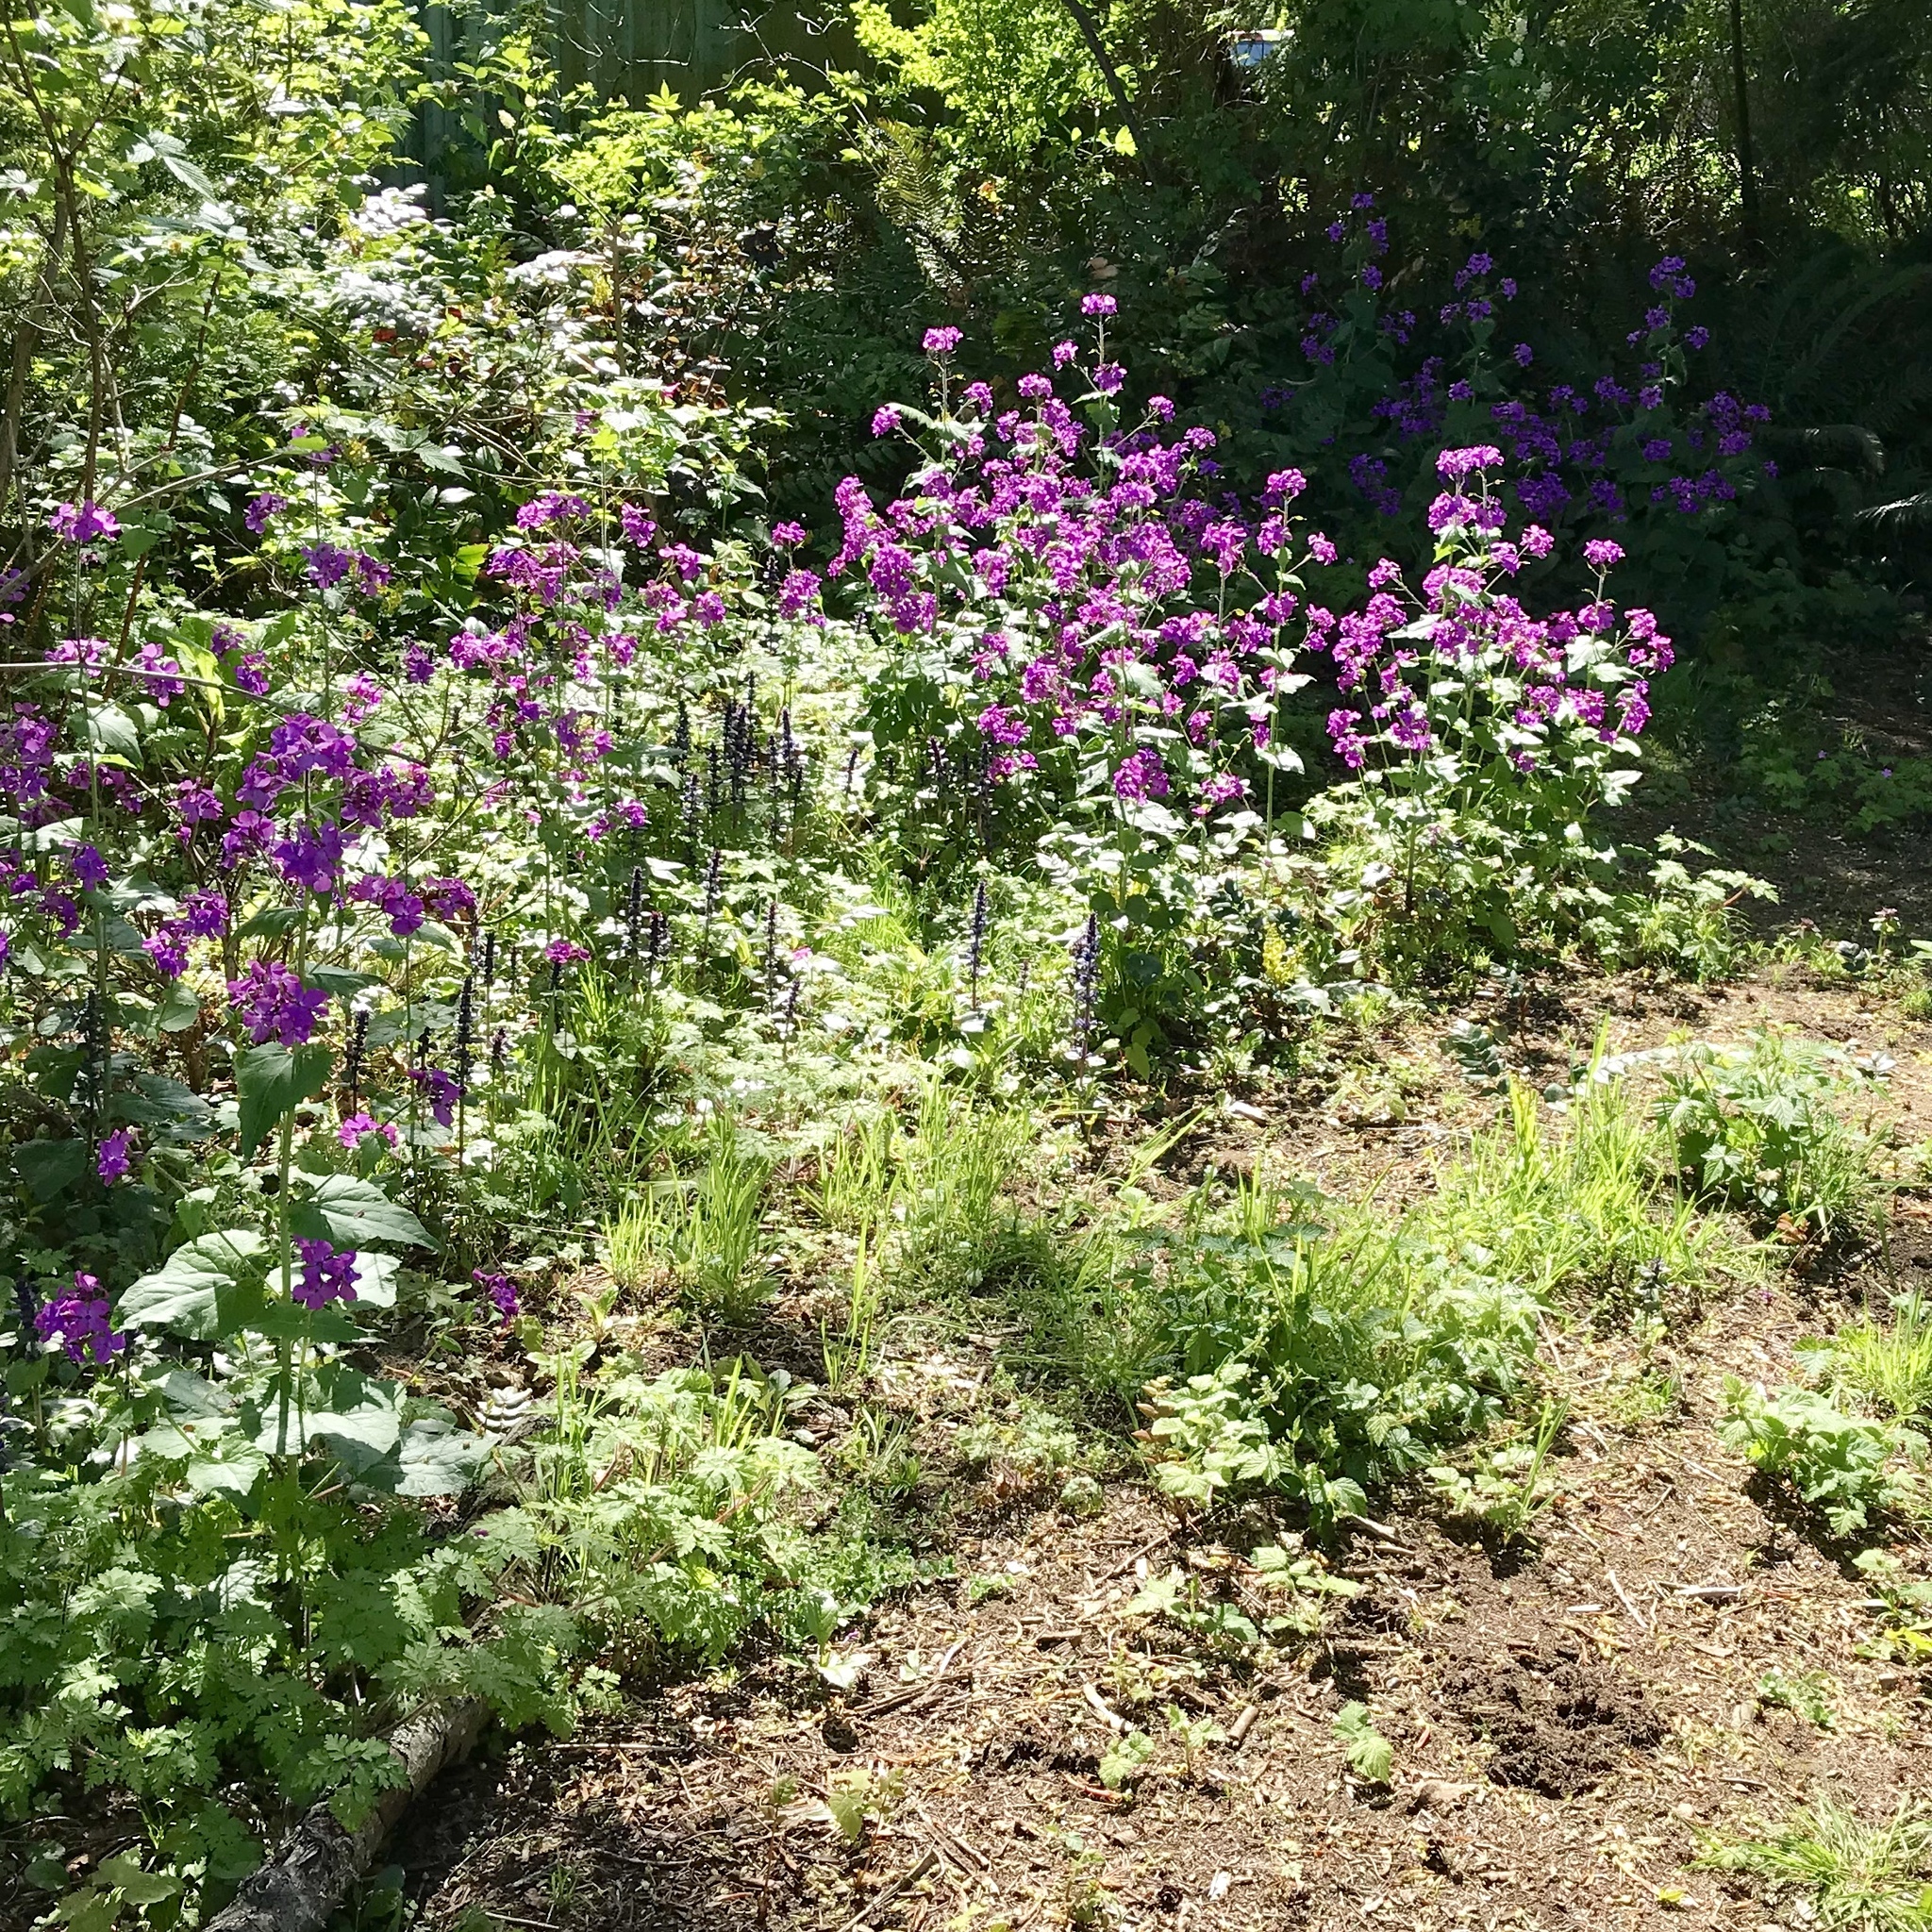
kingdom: Plantae
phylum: Tracheophyta
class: Magnoliopsida
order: Brassicales
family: Brassicaceae
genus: Lunaria
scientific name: Lunaria annua
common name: Honesty
